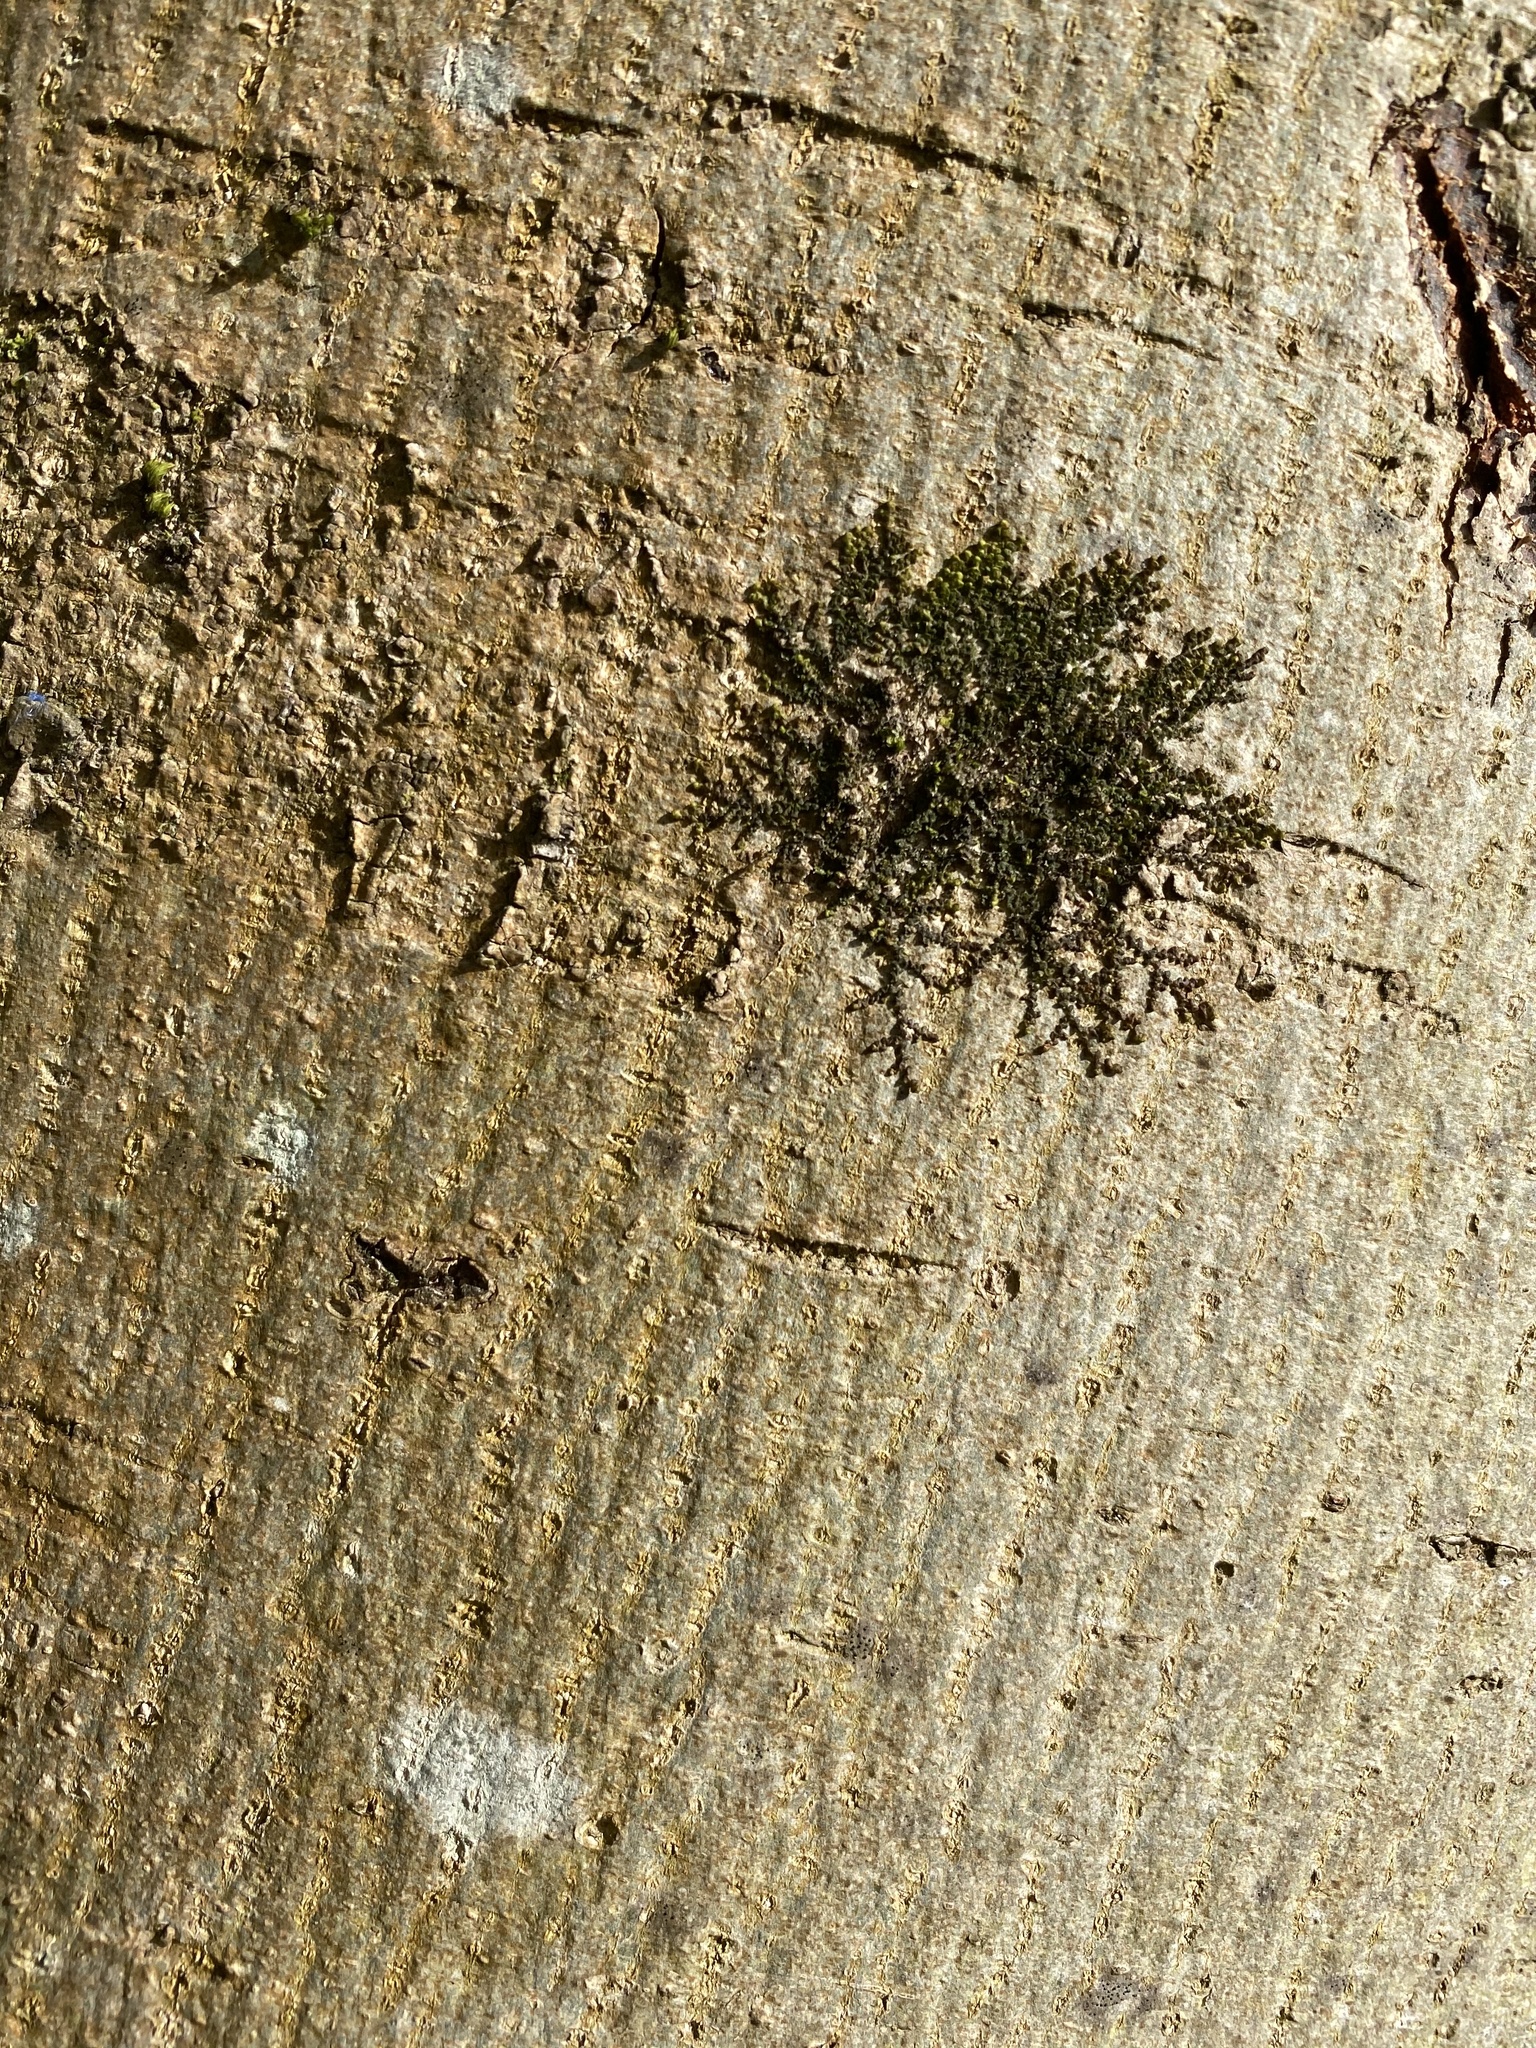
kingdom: Plantae
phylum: Marchantiophyta
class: Jungermanniopsida
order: Porellales
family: Frullaniaceae
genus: Frullania
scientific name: Frullania dilatata
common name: Dilated scalewort
